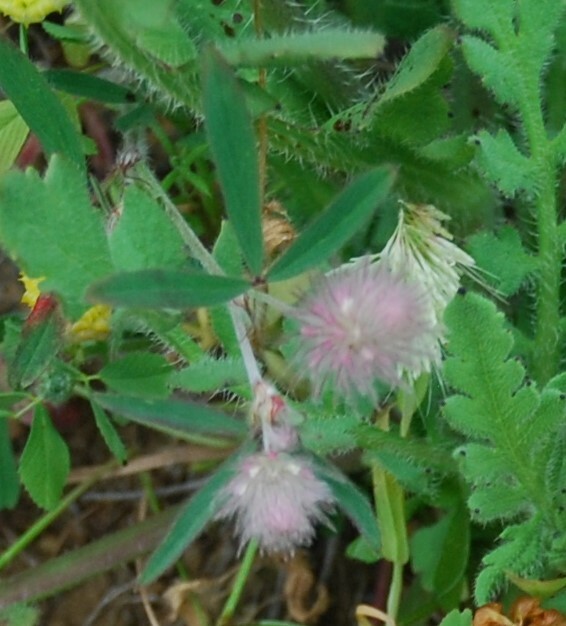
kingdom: Plantae
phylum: Tracheophyta
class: Magnoliopsida
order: Fabales
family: Fabaceae
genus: Trifolium
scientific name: Trifolium arvense
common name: Hare's-foot clover
